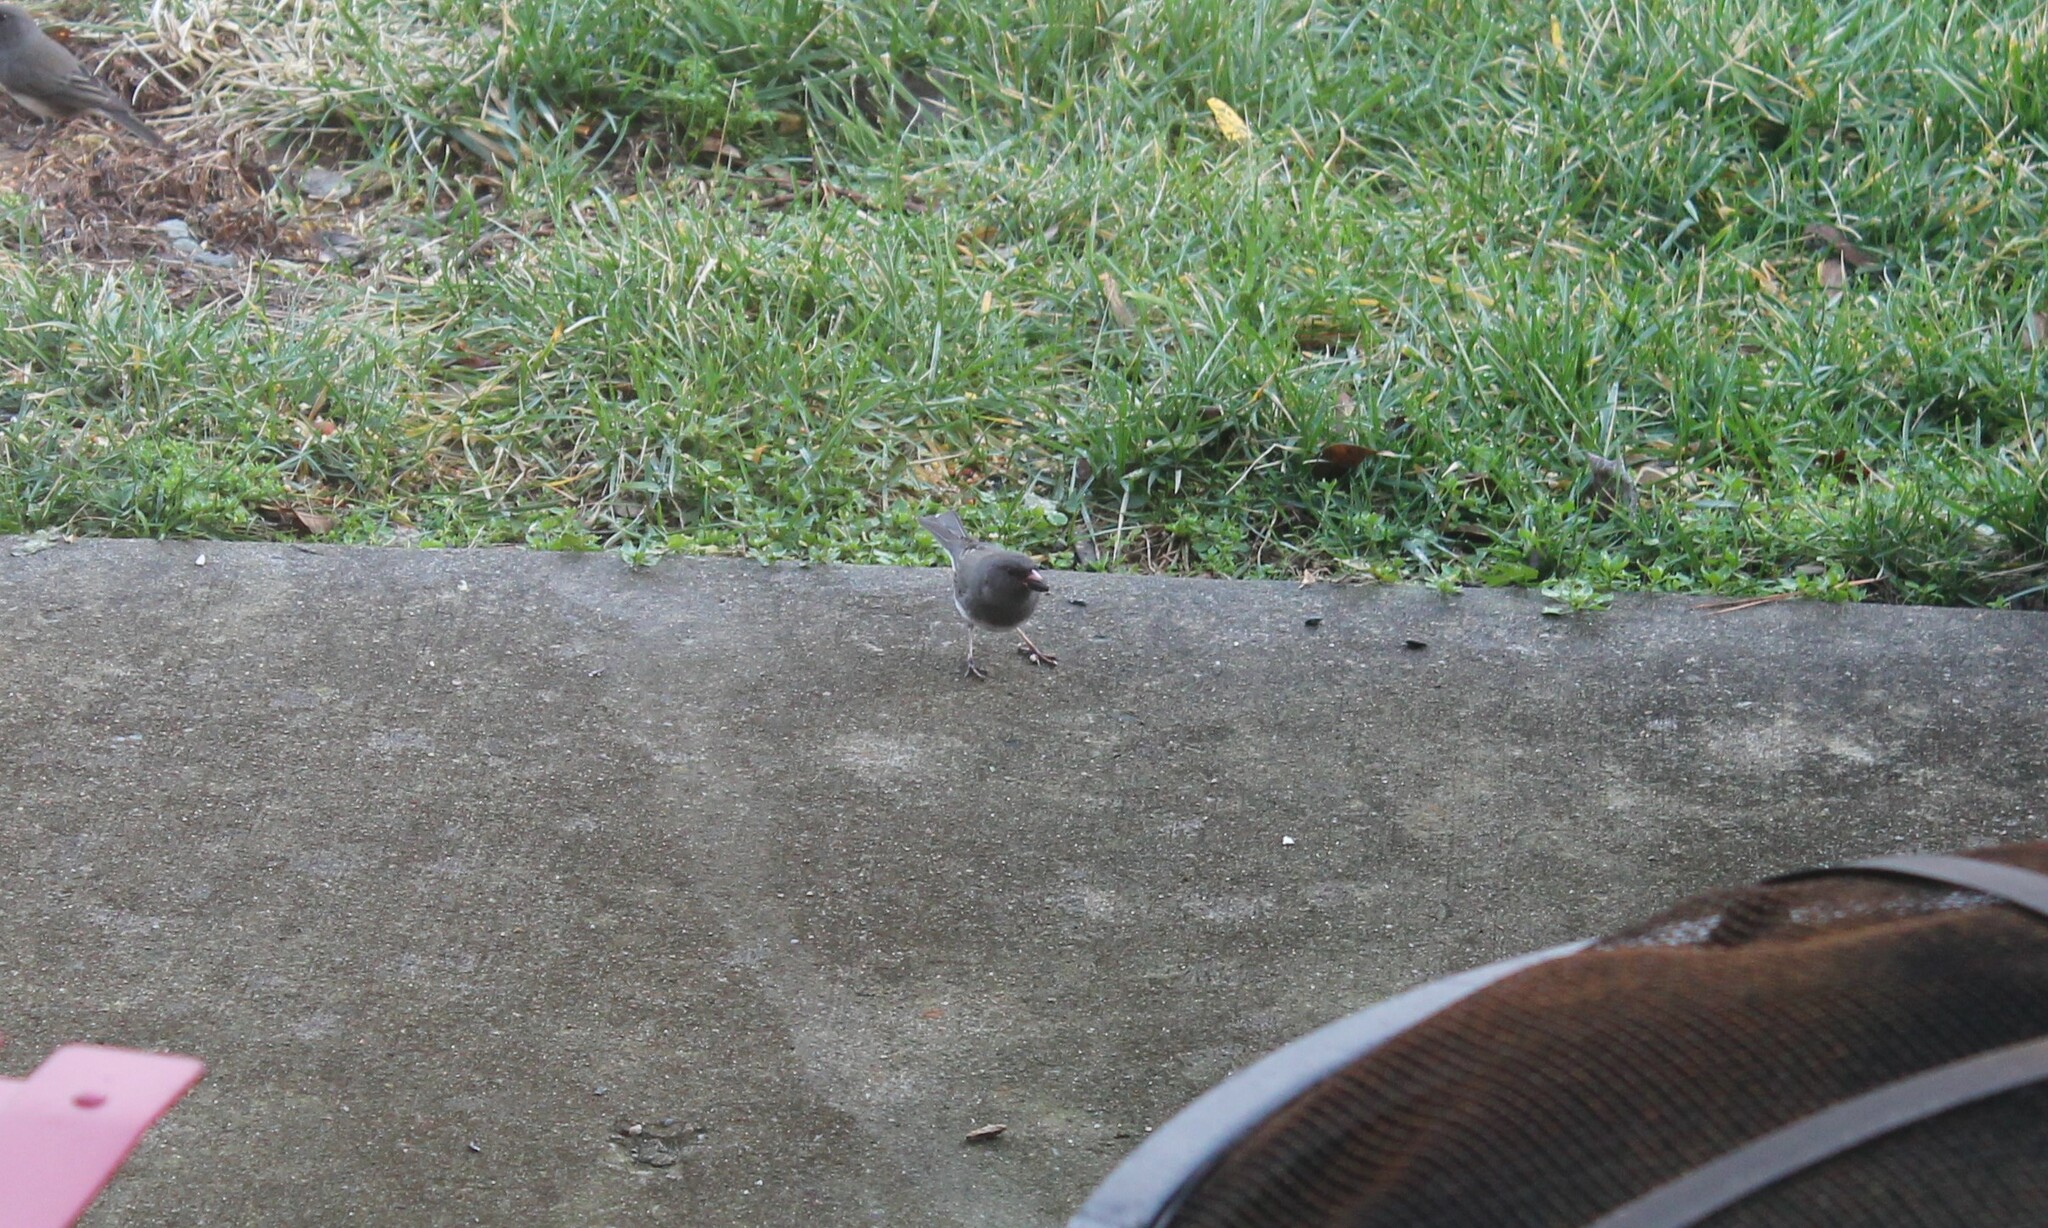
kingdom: Animalia
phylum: Chordata
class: Aves
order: Passeriformes
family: Passerellidae
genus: Junco
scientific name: Junco hyemalis
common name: Dark-eyed junco
